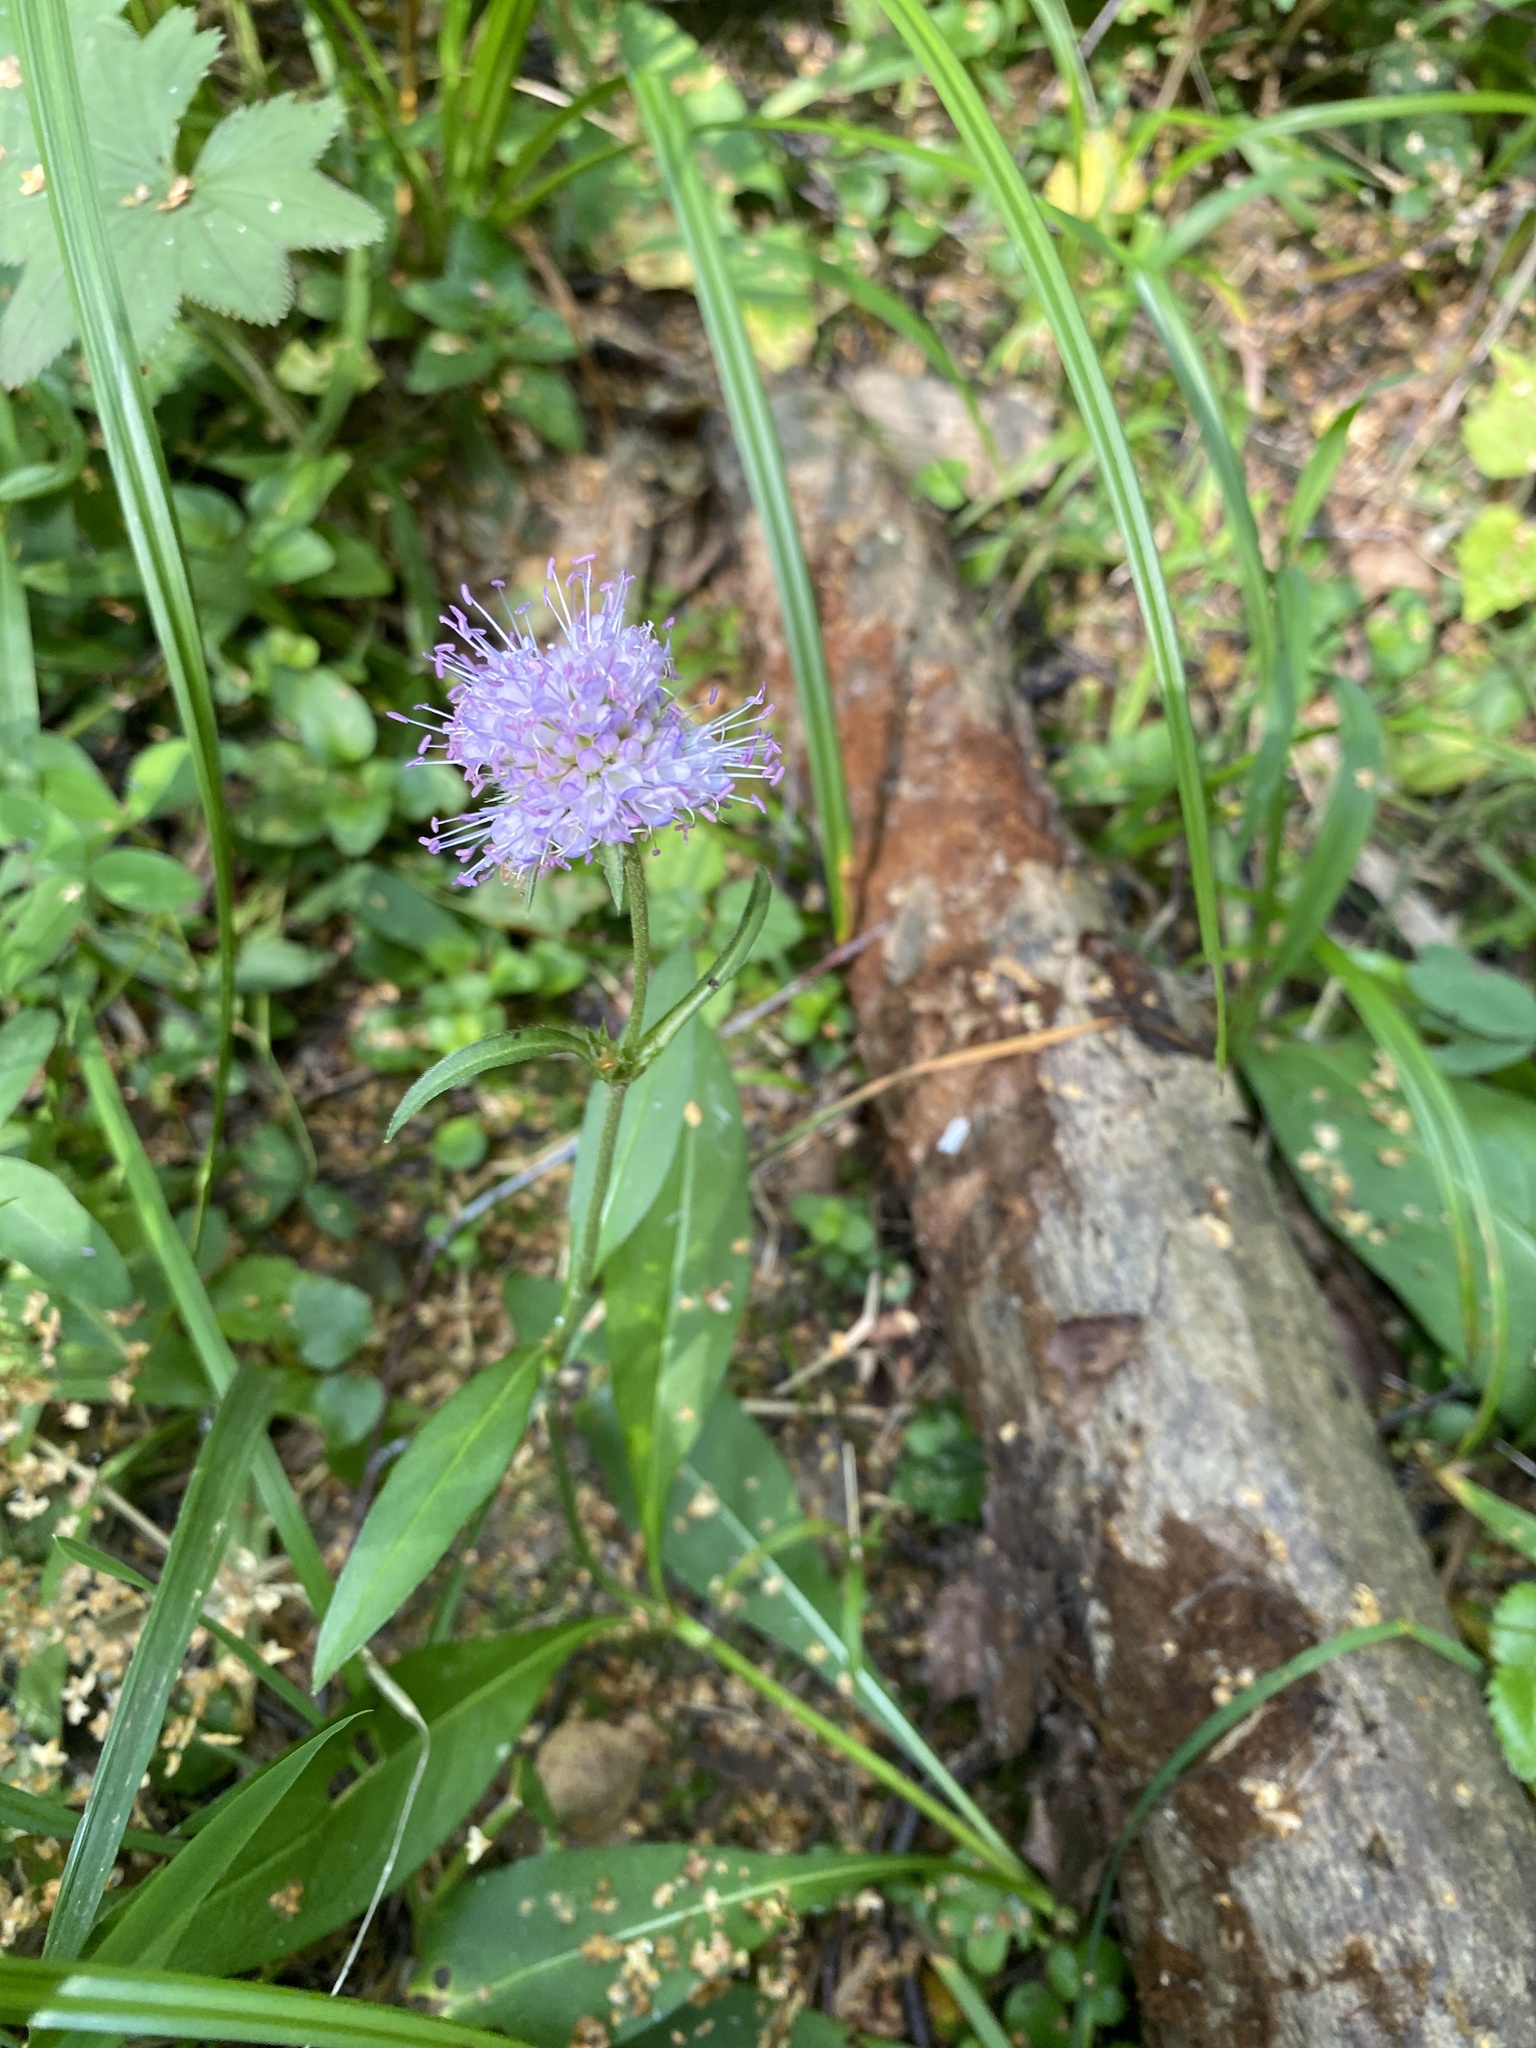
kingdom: Plantae
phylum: Tracheophyta
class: Magnoliopsida
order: Dipsacales
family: Caprifoliaceae
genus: Succisa
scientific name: Succisa pratensis
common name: Devil's-bit
